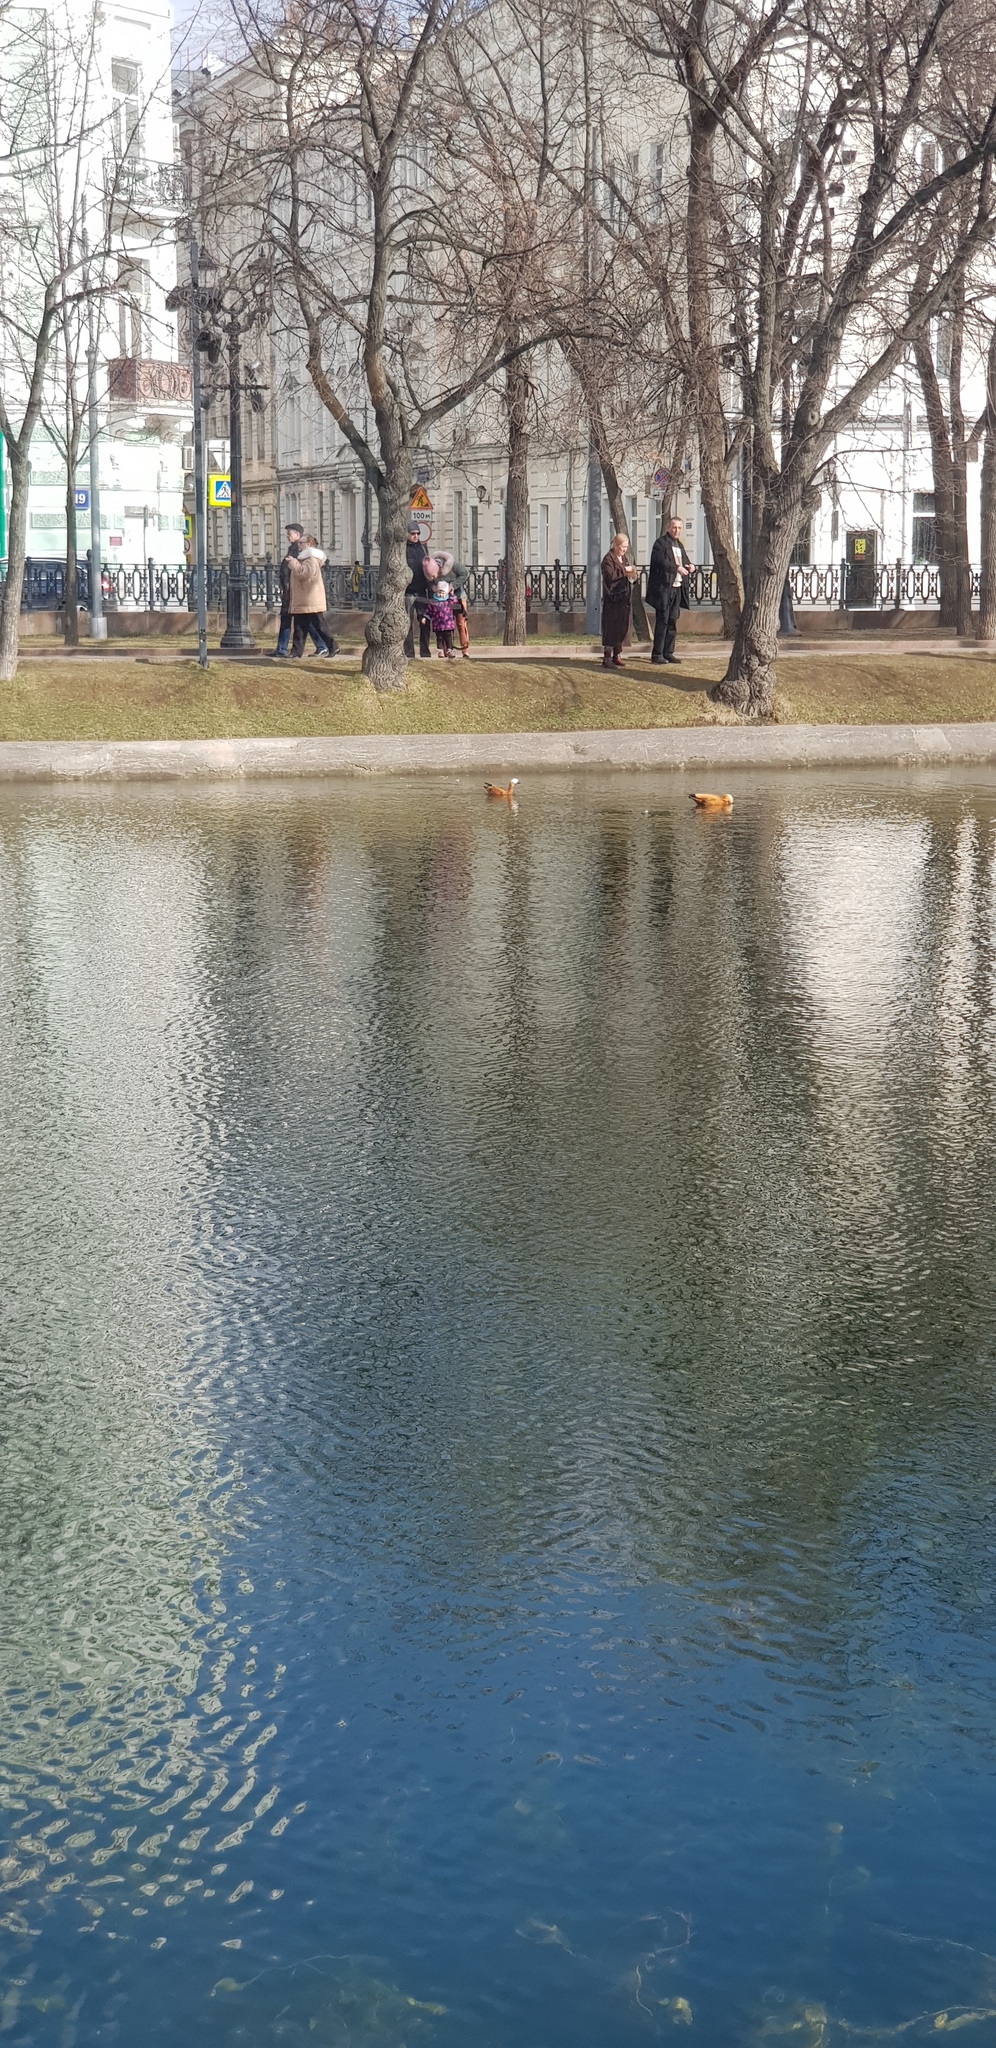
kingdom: Animalia
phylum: Chordata
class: Aves
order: Anseriformes
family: Anatidae
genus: Tadorna
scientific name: Tadorna ferruginea
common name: Ruddy shelduck
